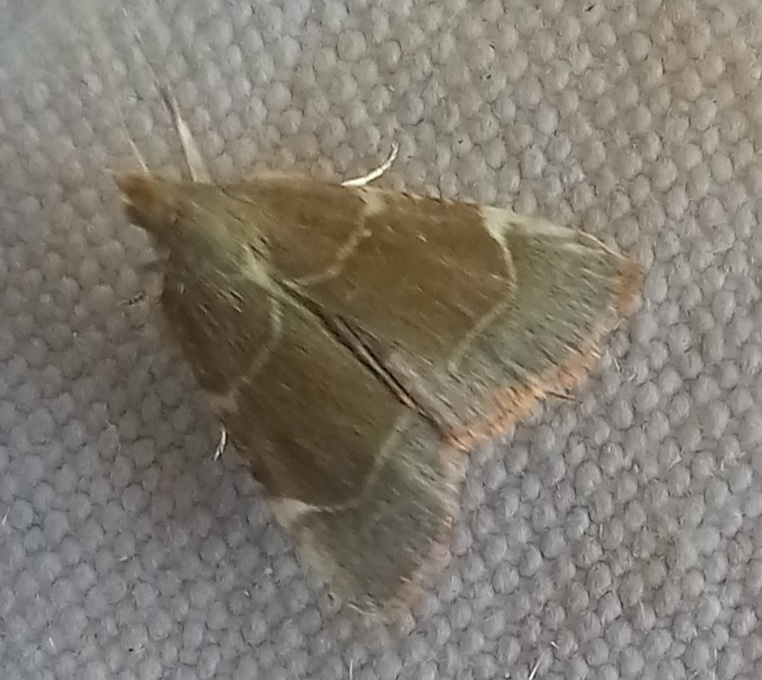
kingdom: Animalia
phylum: Arthropoda
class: Insecta
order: Lepidoptera
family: Pyralidae
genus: Hypsopygia
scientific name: Hypsopygia fulvocilialis
